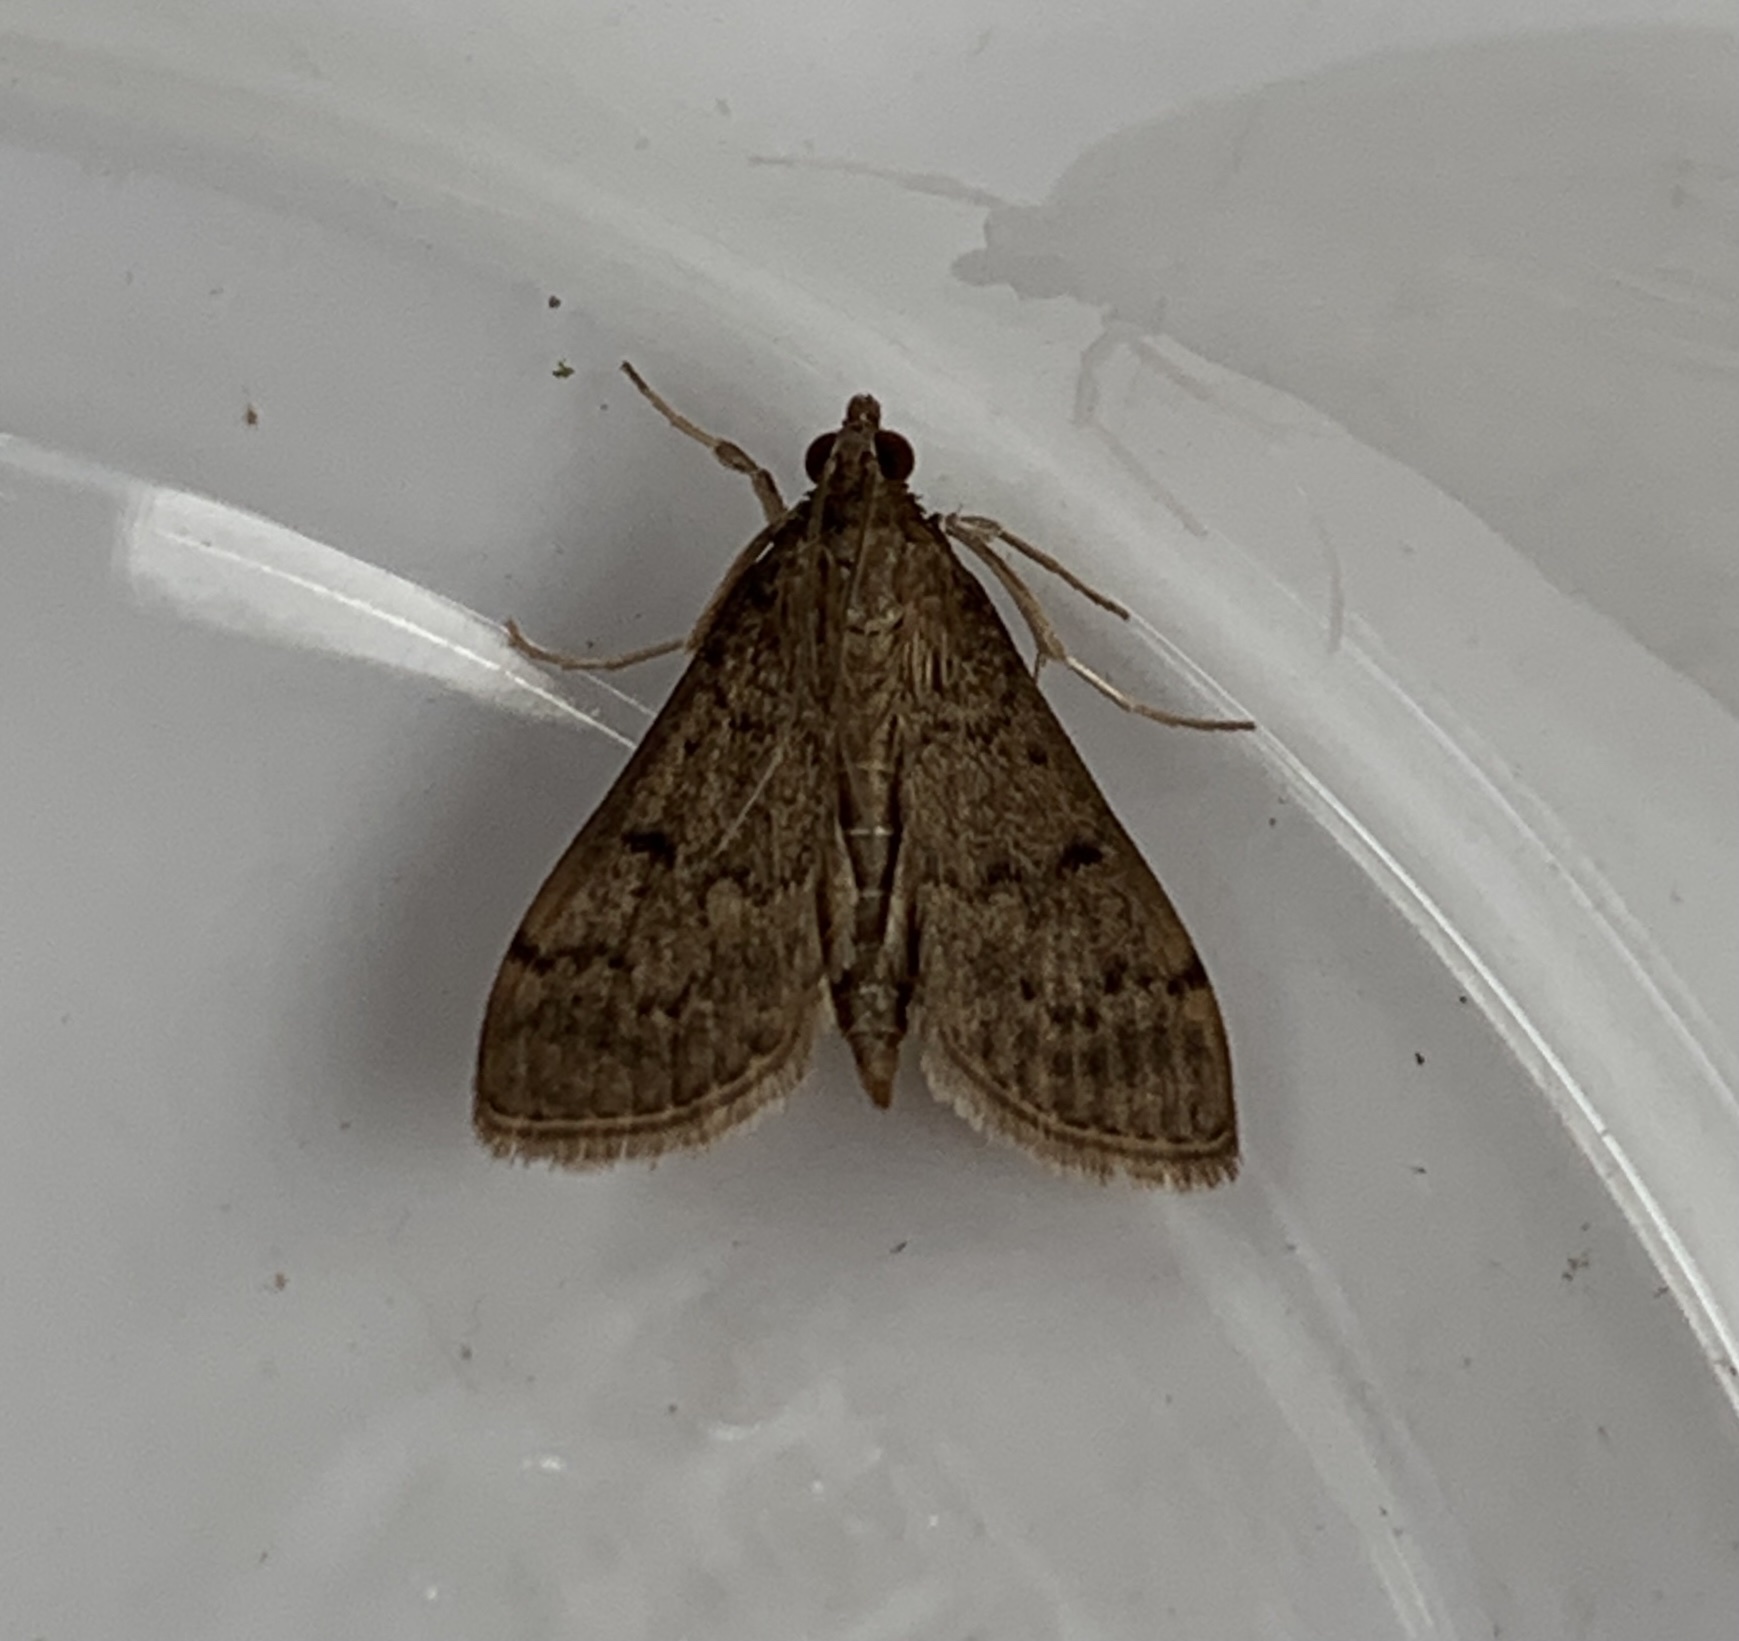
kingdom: Animalia
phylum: Arthropoda
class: Insecta
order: Lepidoptera
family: Crambidae
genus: Herpetogramma
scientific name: Herpetogramma phaeopteralis
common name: Dusky herpetogramma moth
